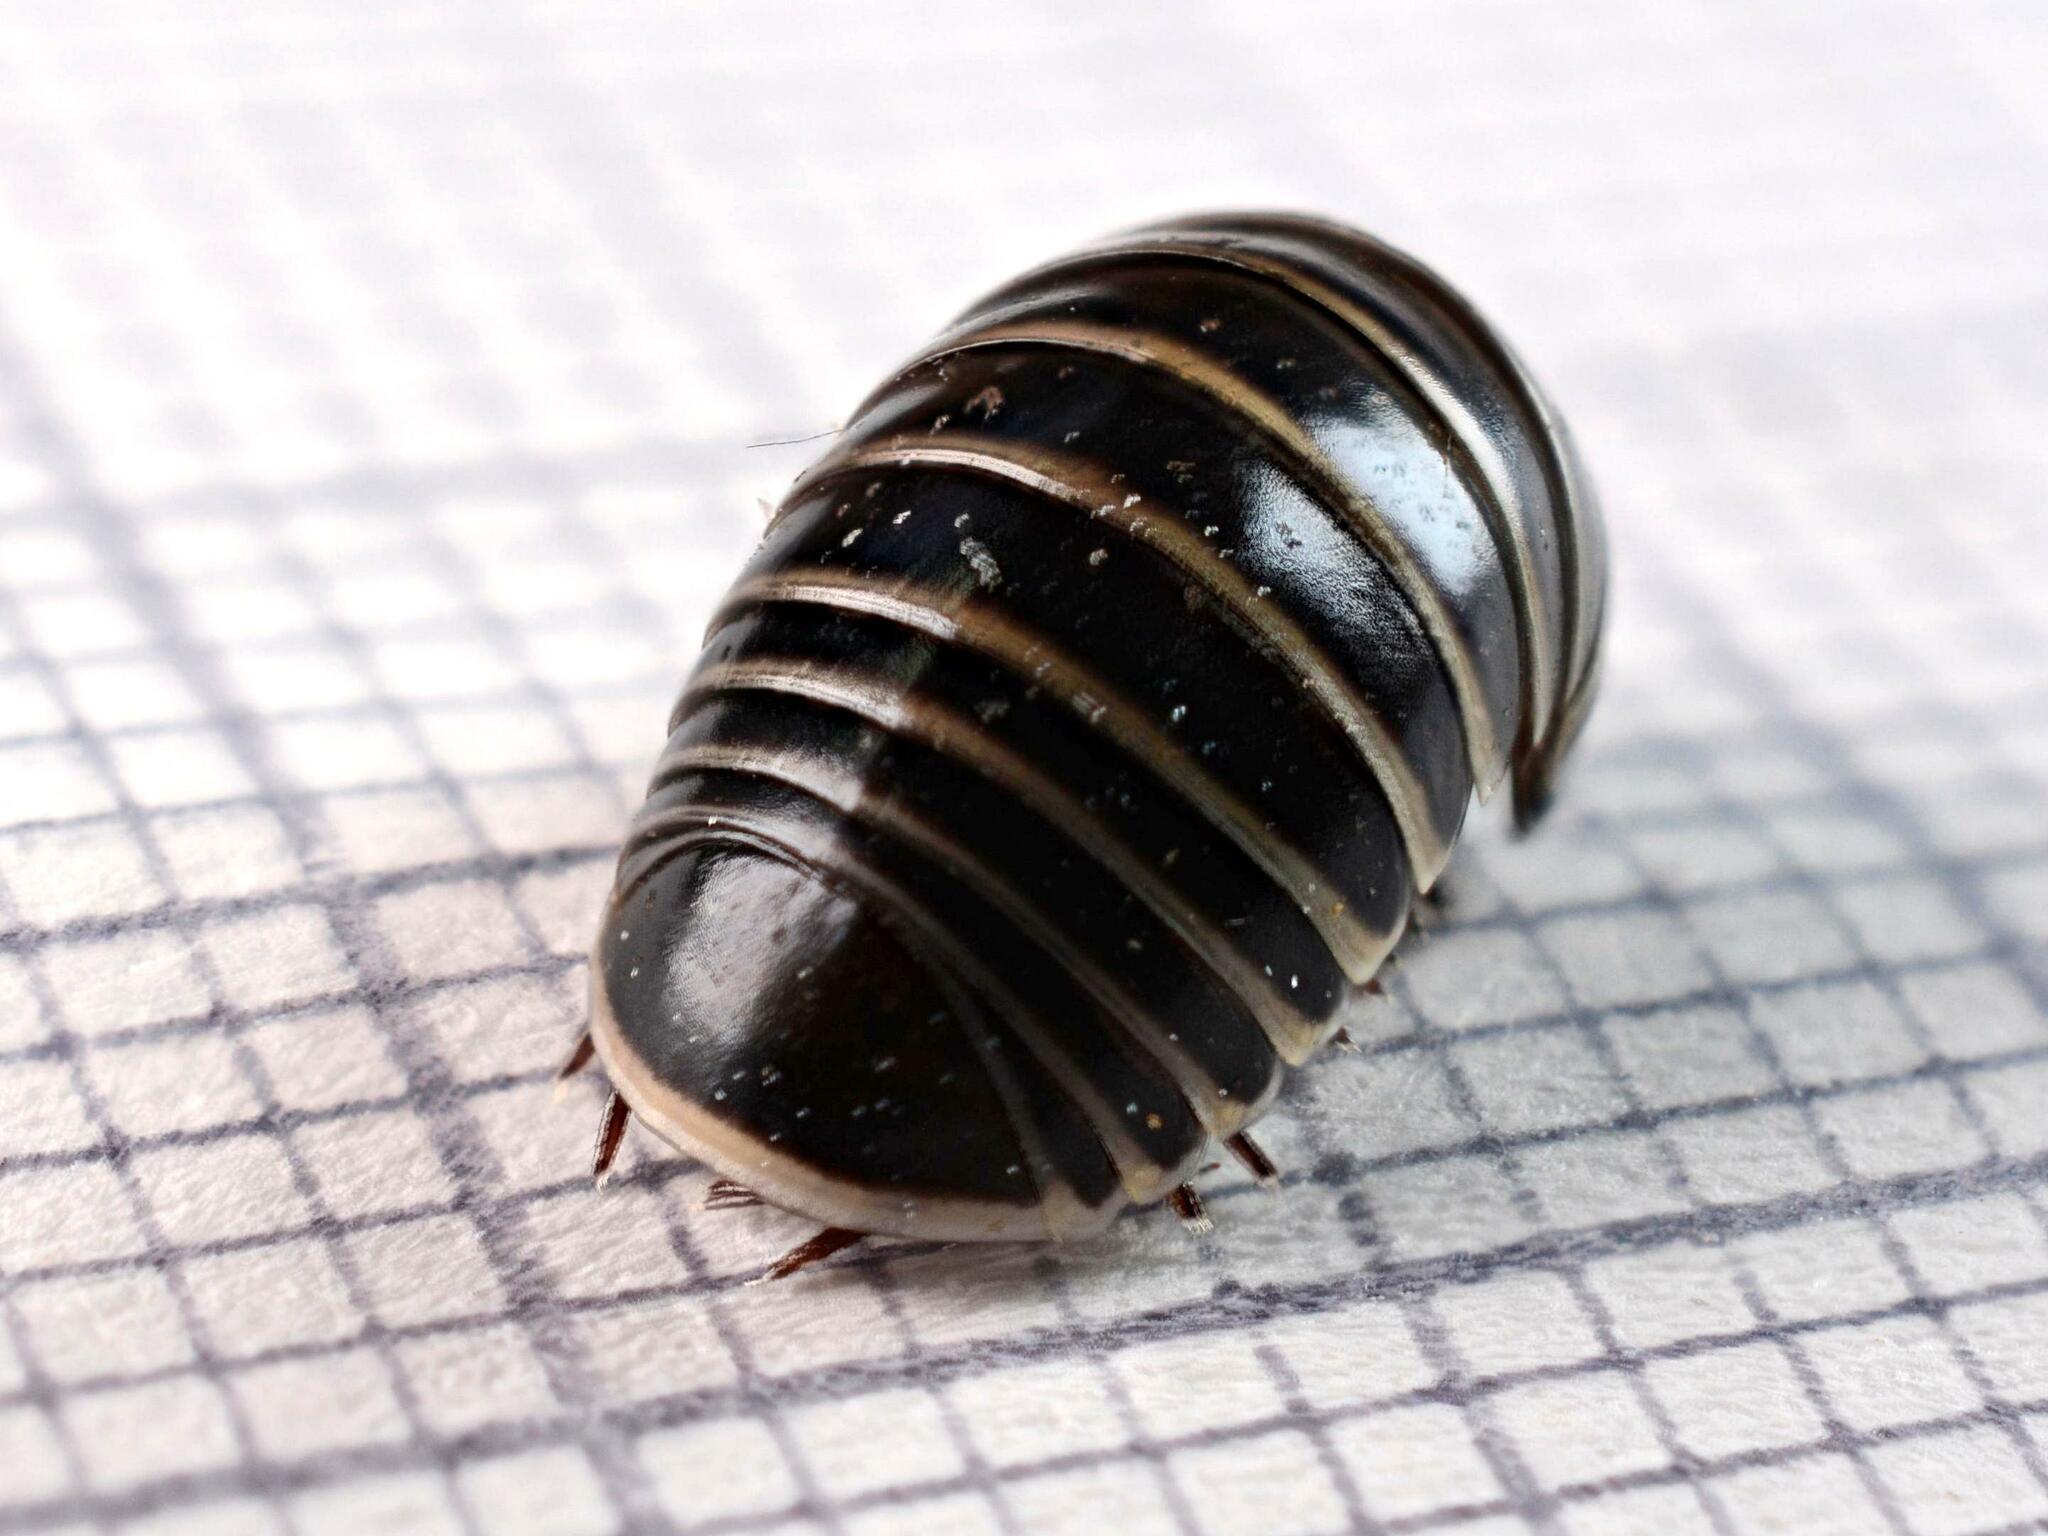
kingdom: Animalia
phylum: Arthropoda
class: Diplopoda
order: Glomerida
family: Glomeridae
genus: Glomeris
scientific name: Glomeris marginata
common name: Bordered pill millipede
